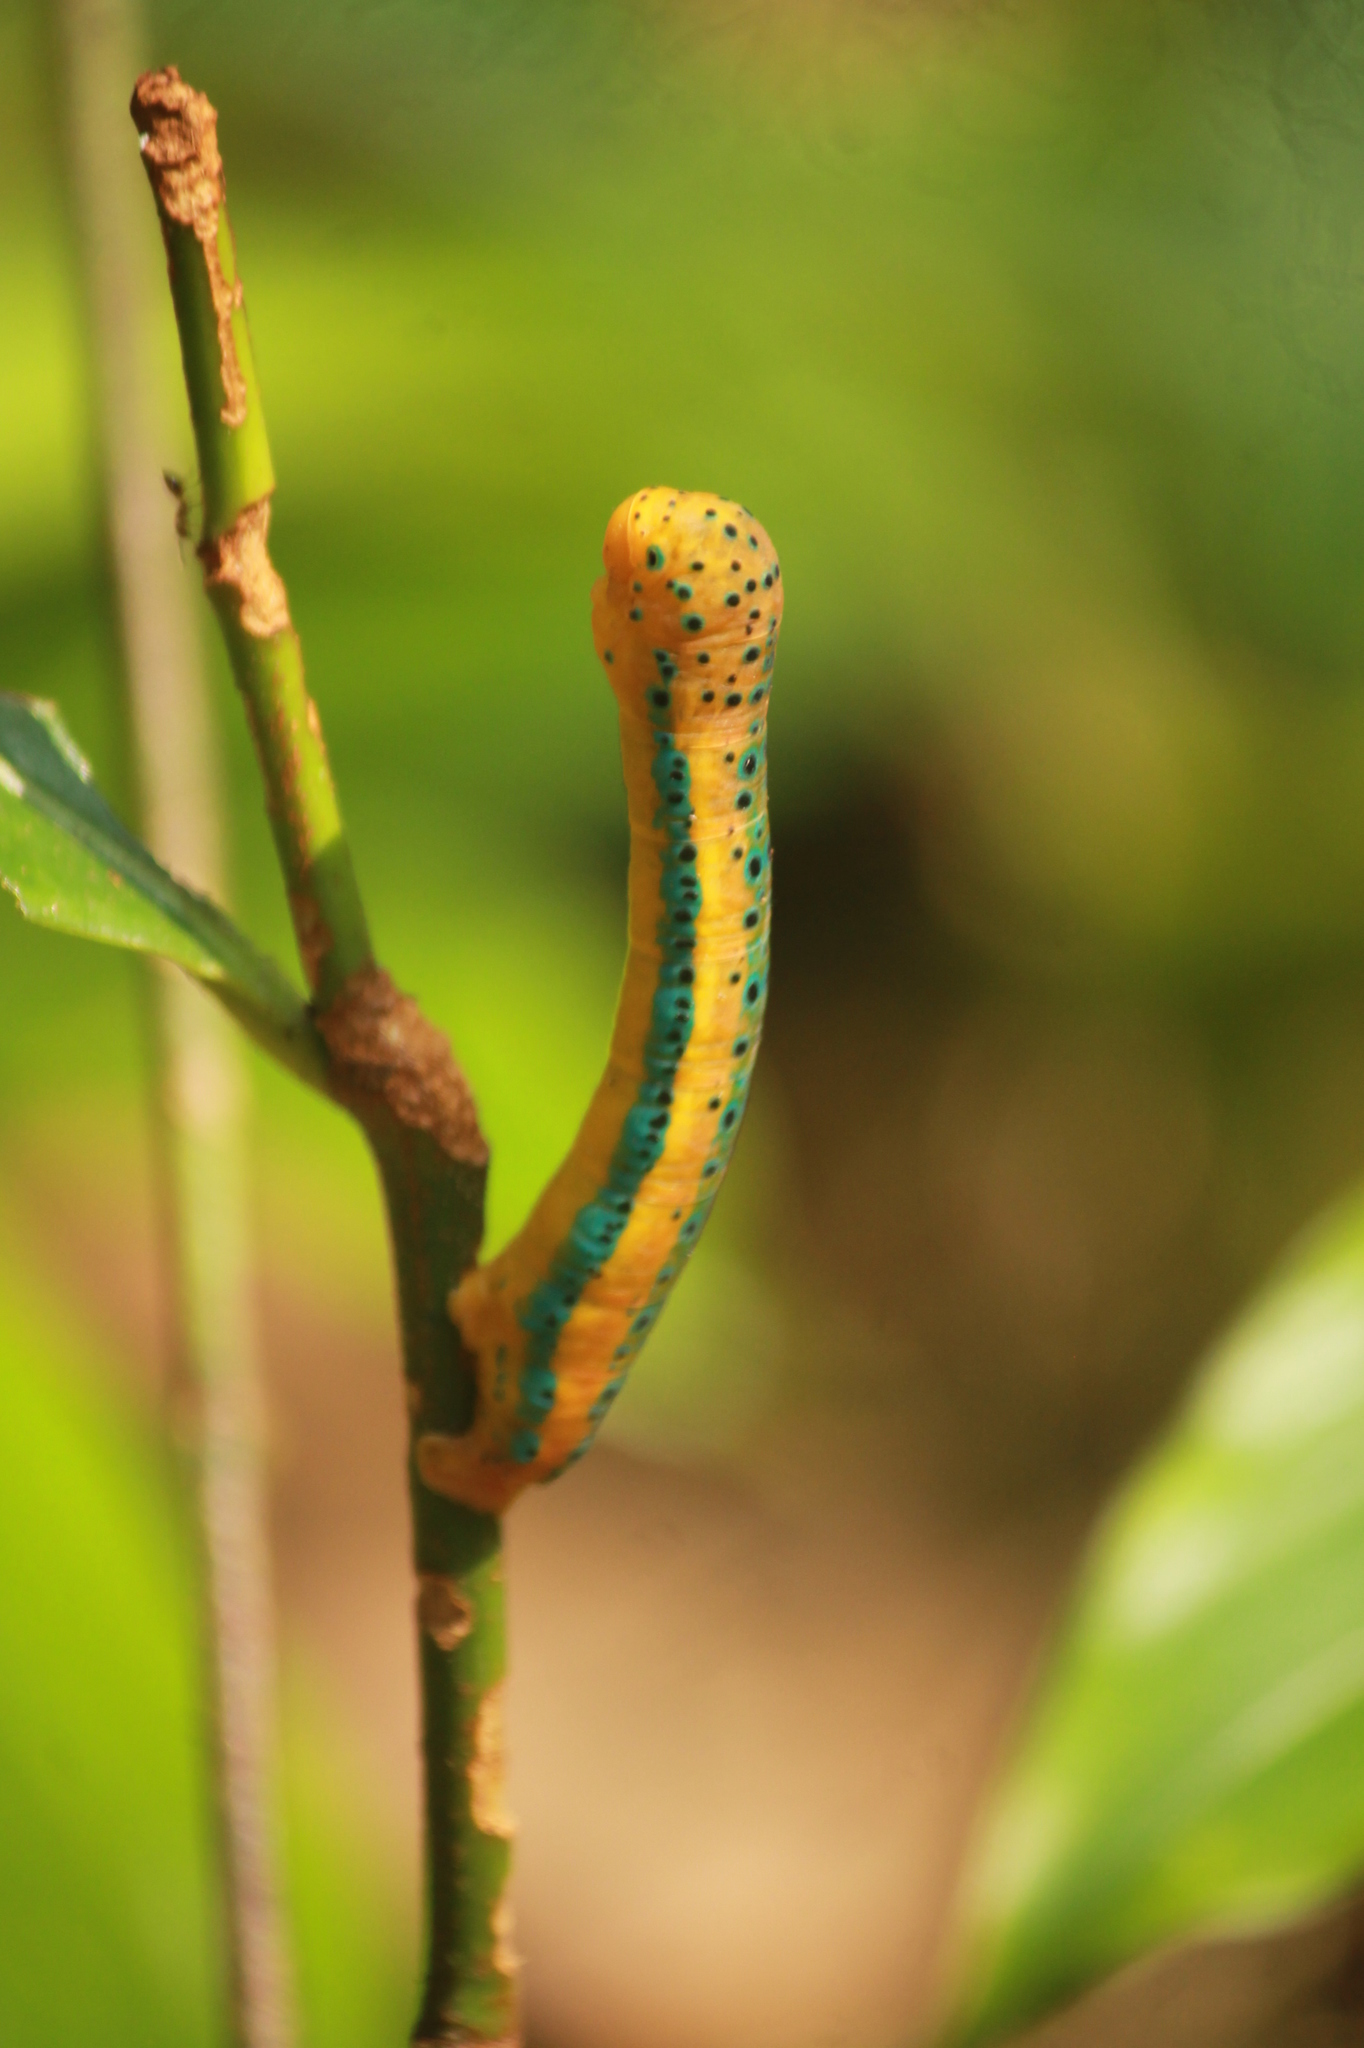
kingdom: Animalia
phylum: Arthropoda
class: Insecta
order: Lepidoptera
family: Geometridae
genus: Dysphania
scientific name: Dysphania percota
